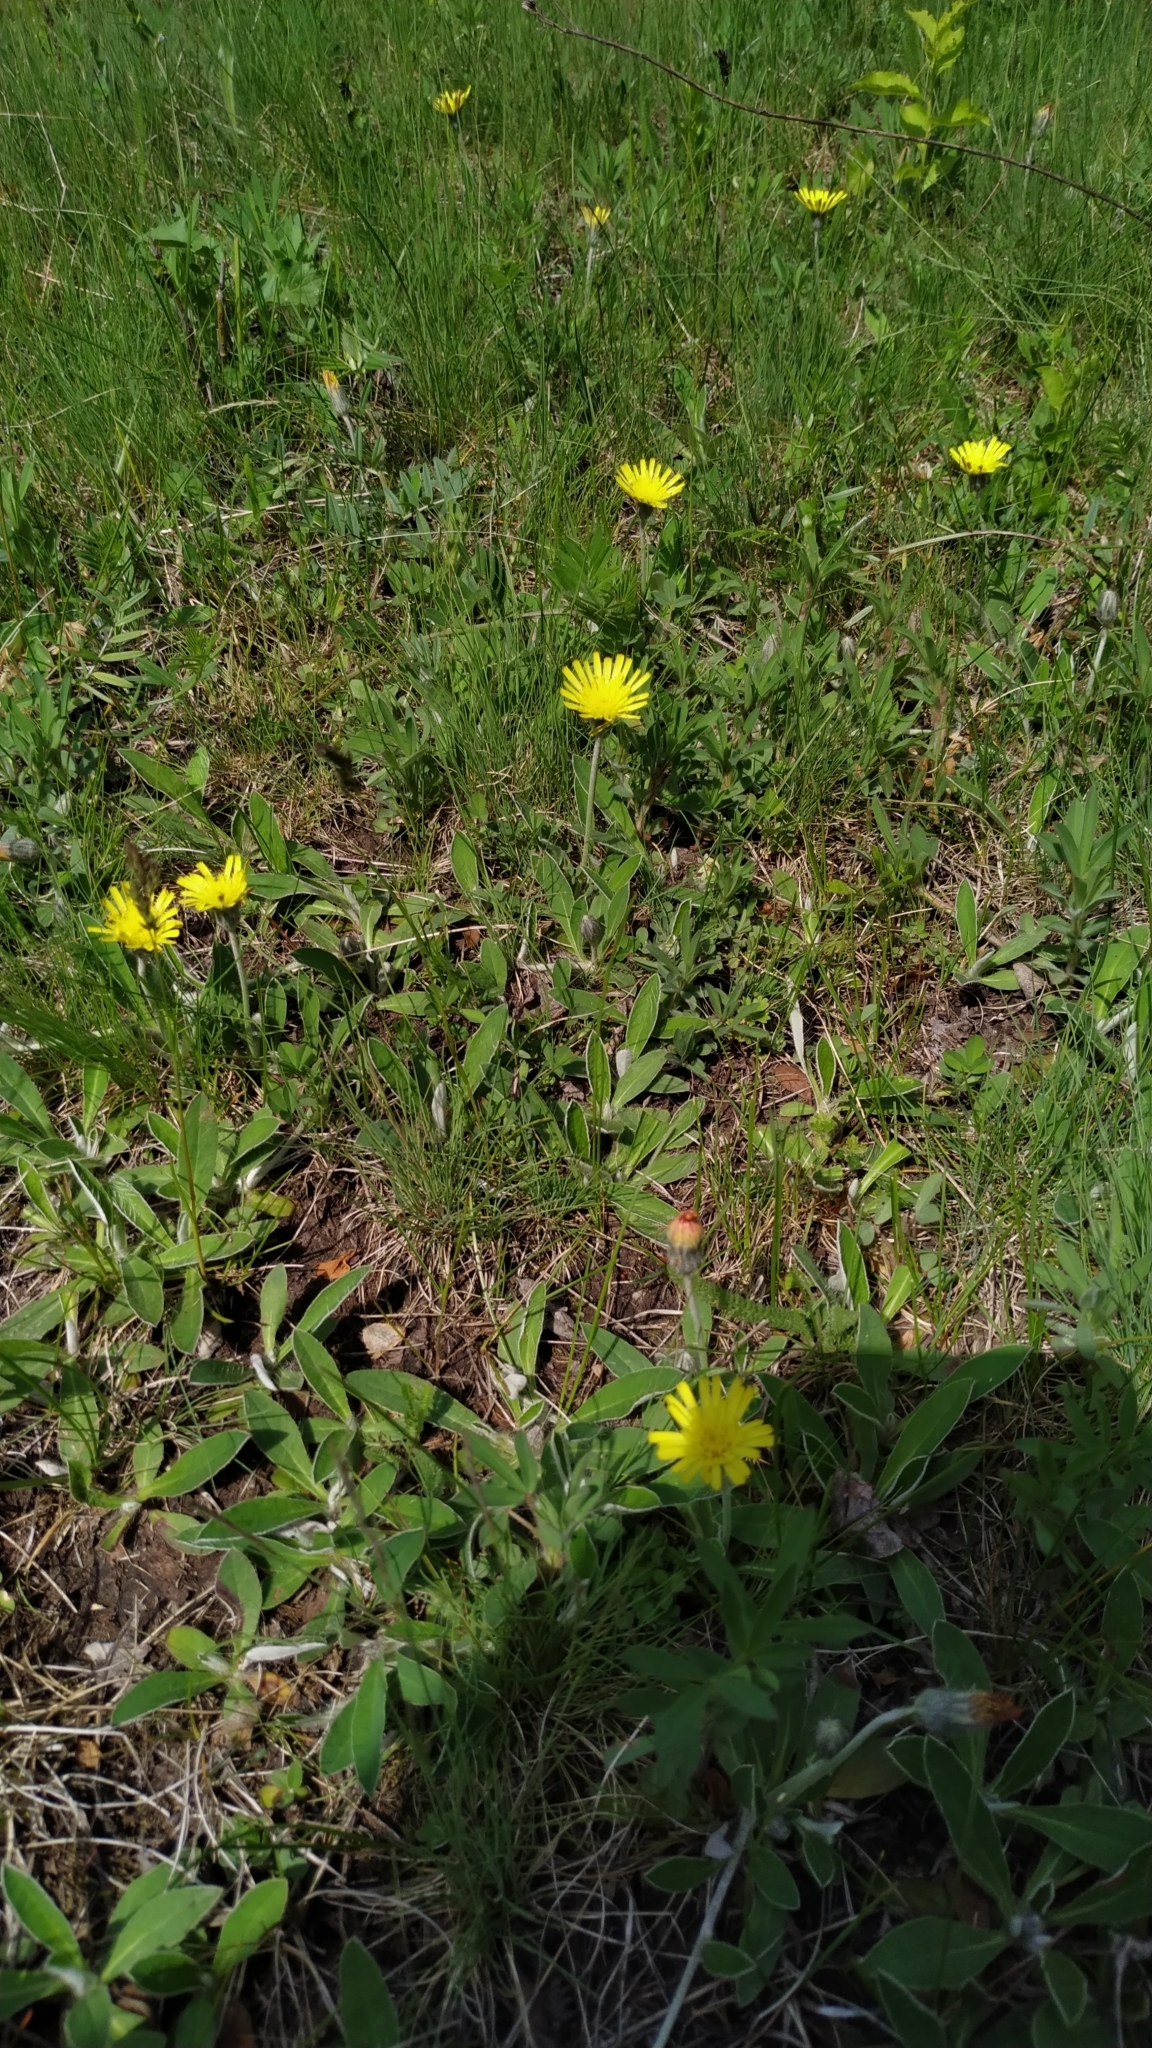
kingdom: Plantae
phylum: Tracheophyta
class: Magnoliopsida
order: Asterales
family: Asteraceae
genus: Pilosella
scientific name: Pilosella officinarum
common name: Mouse-ear hawkweed
